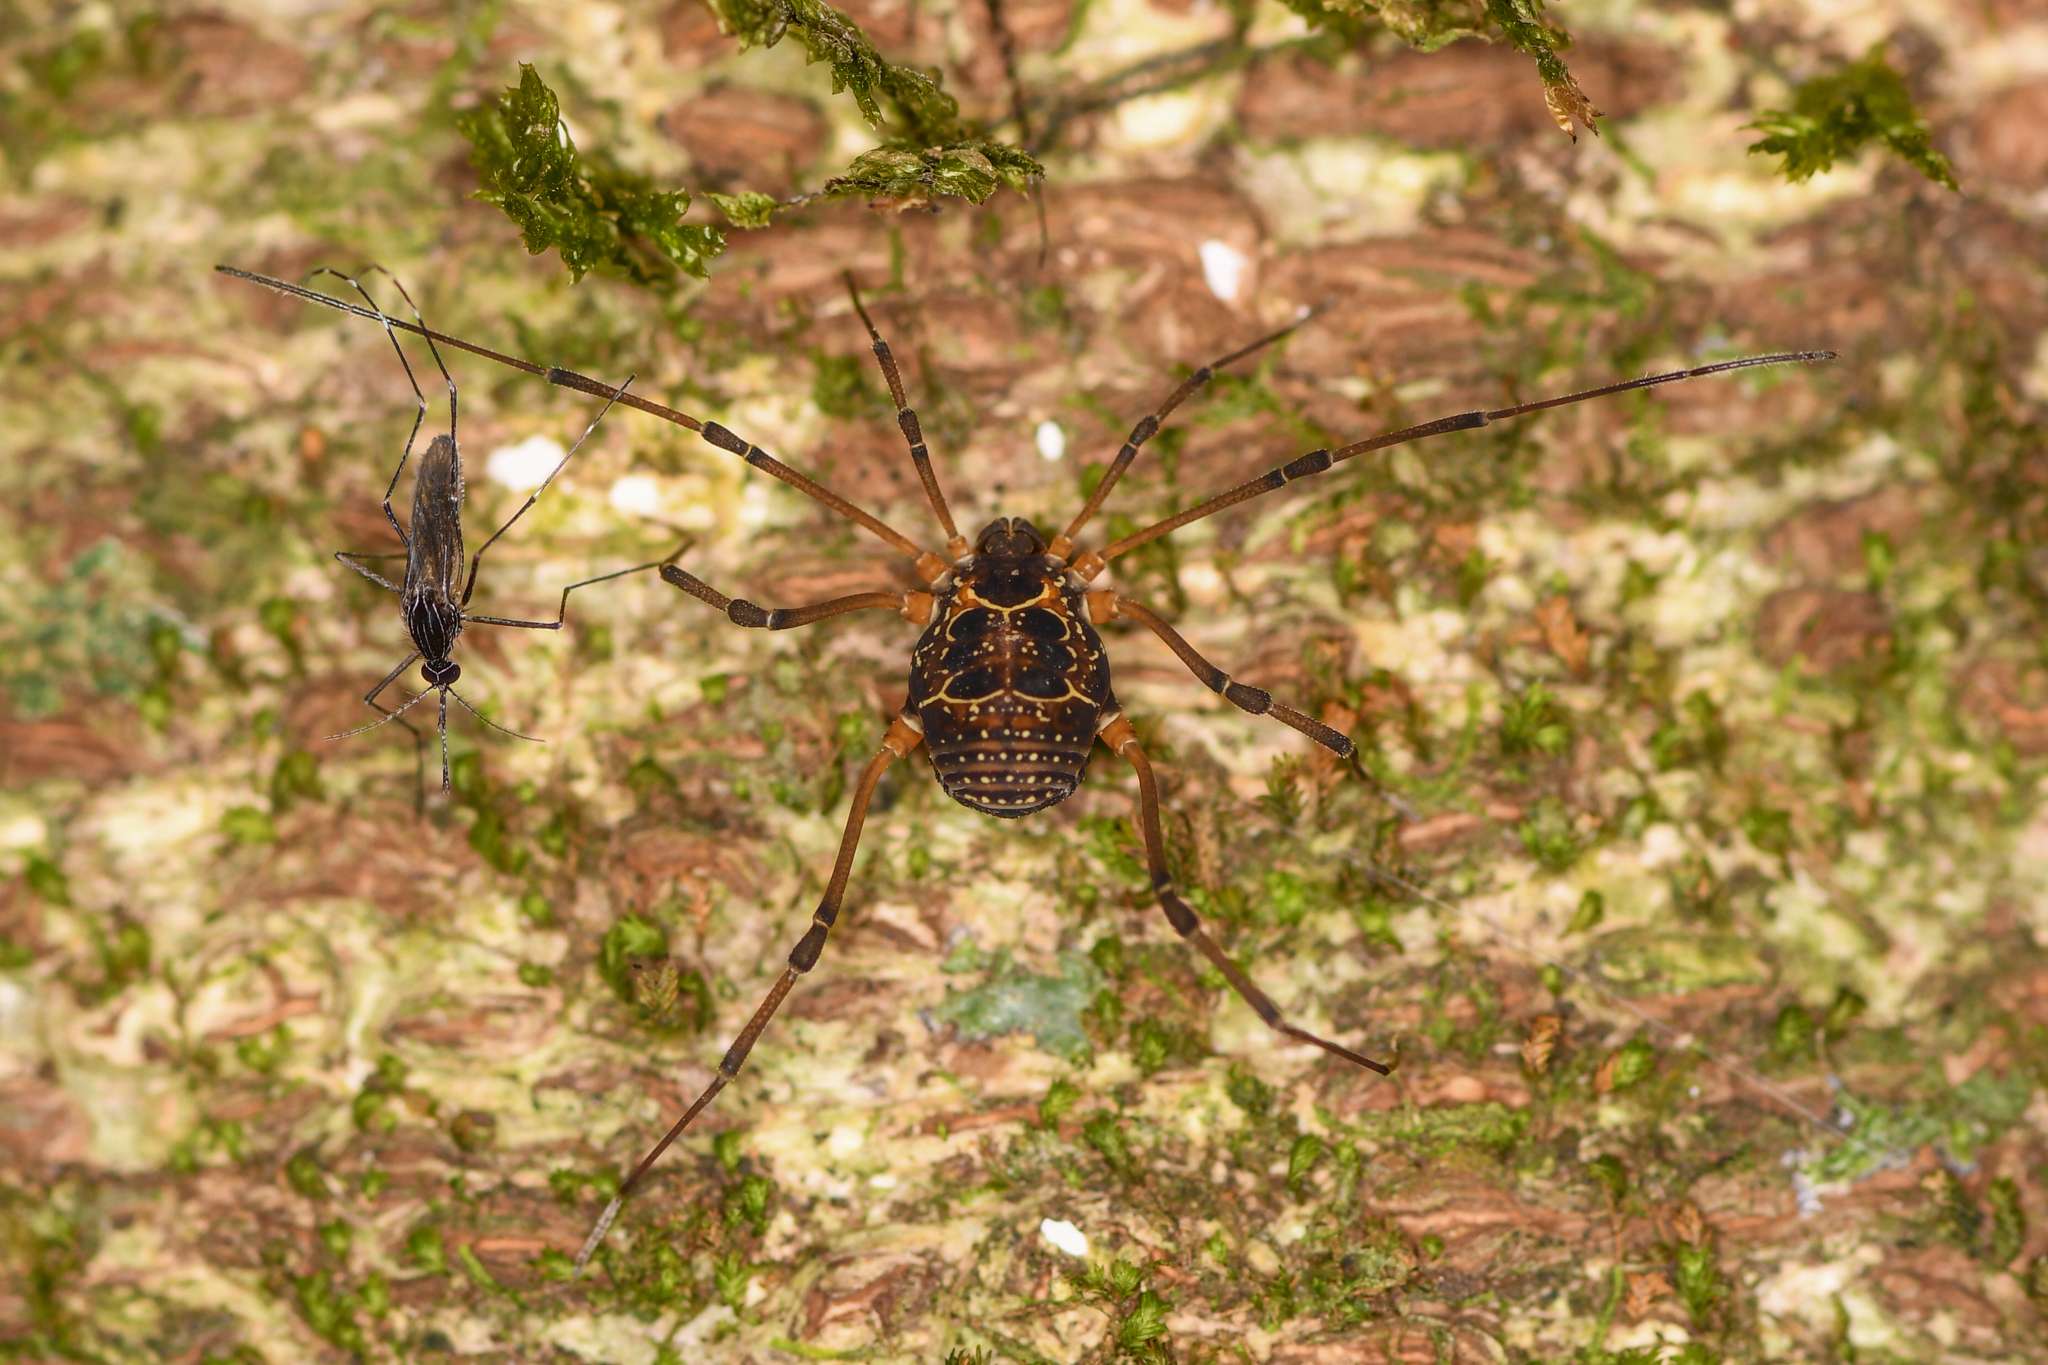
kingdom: Animalia
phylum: Arthropoda
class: Arachnida
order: Opiliones
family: Cosmetidae
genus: Eucynortula
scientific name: Eucynortula albipunctata
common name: Harvestmen
